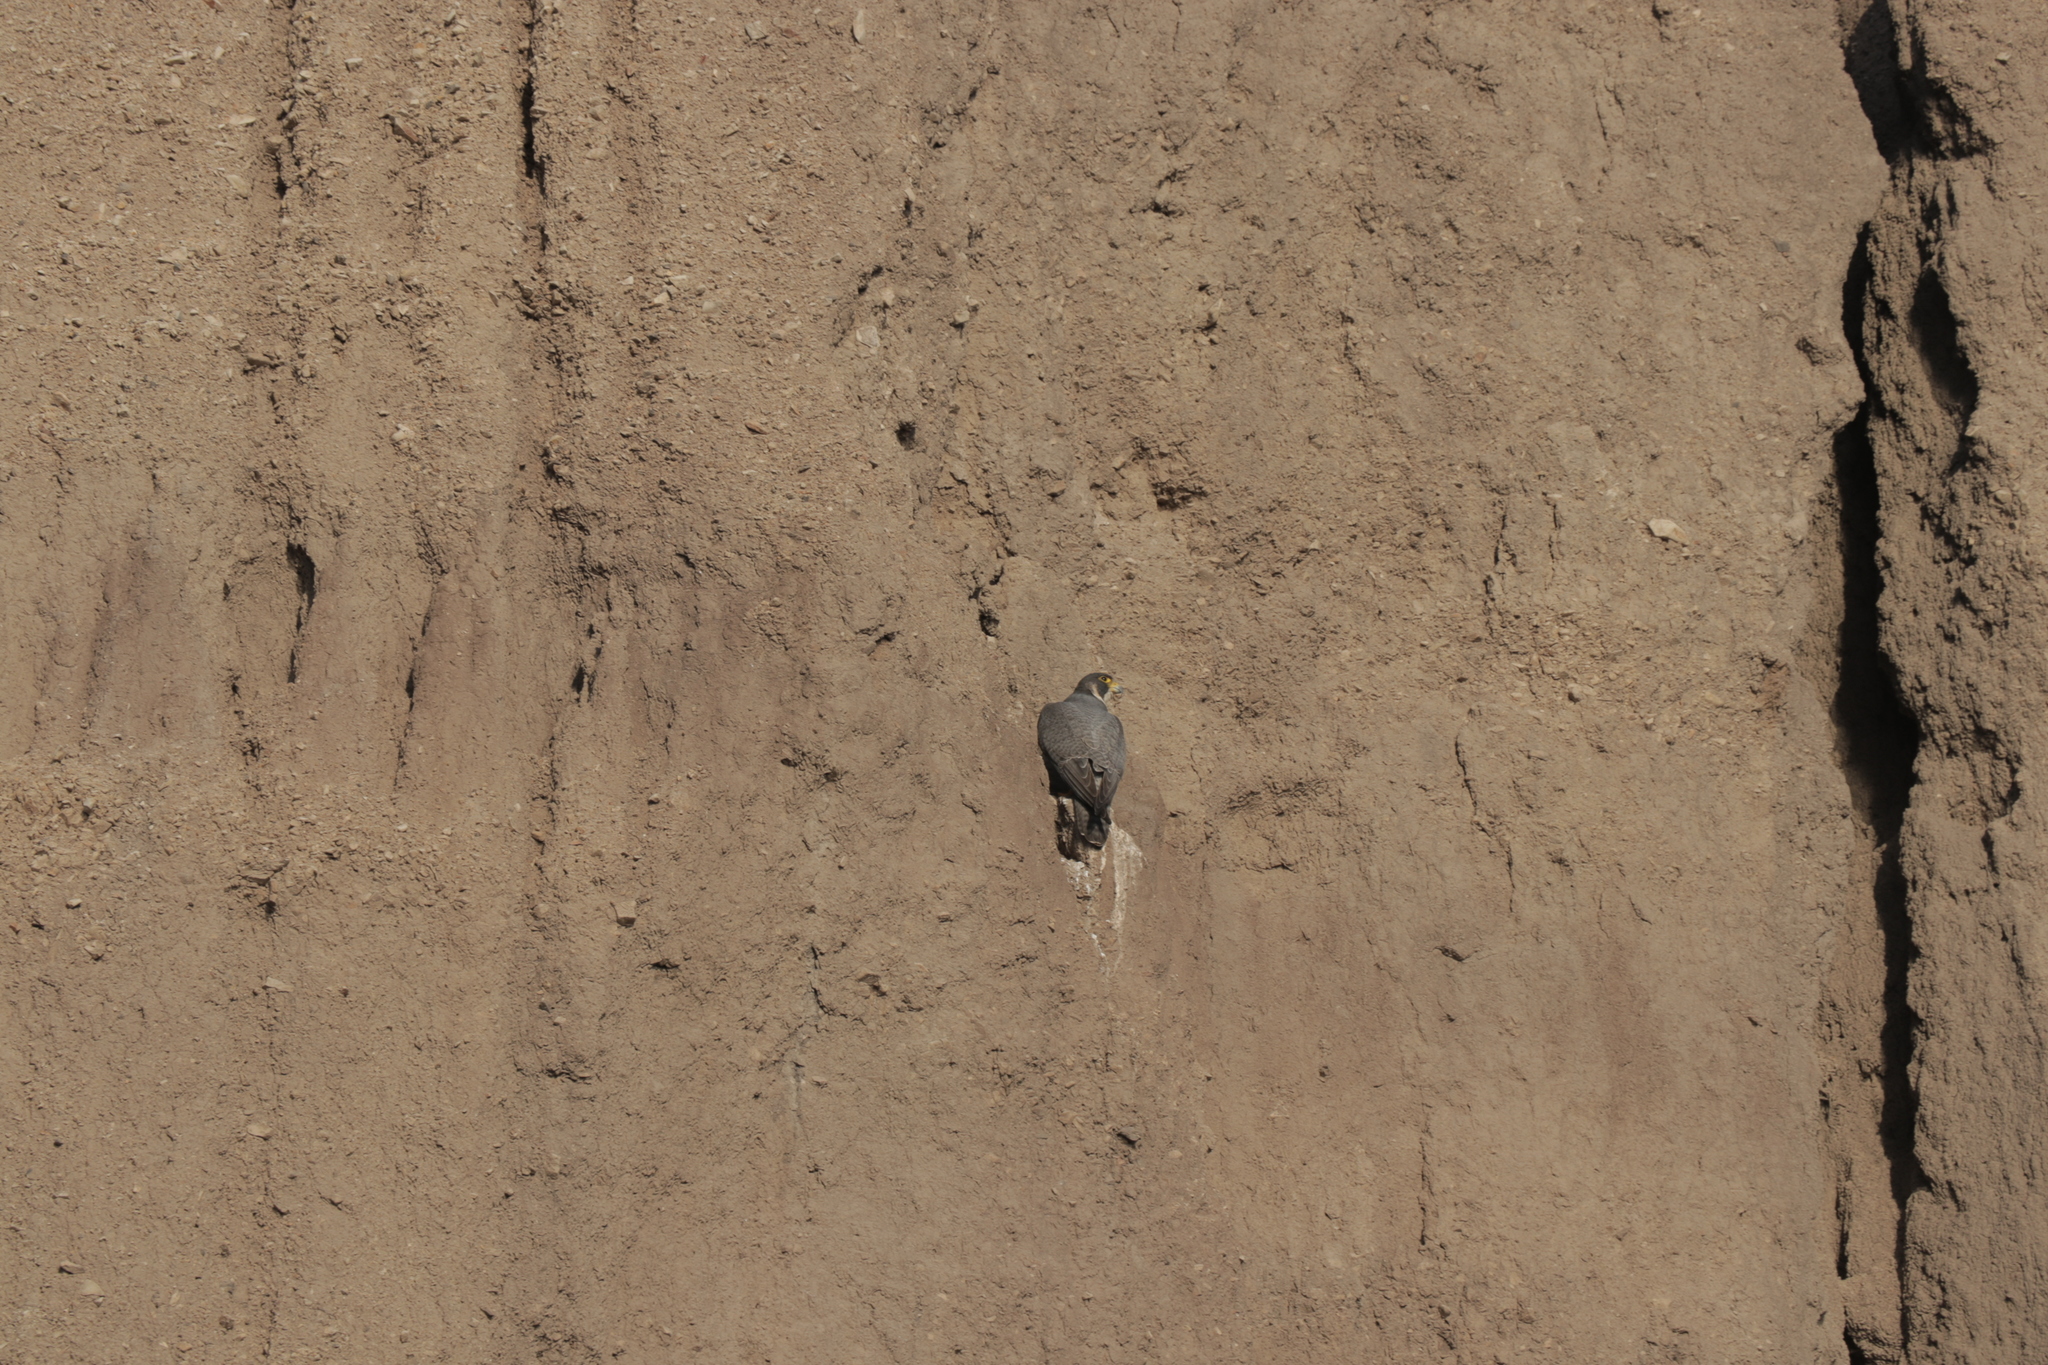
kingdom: Animalia
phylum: Chordata
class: Aves
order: Falconiformes
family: Falconidae
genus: Falco
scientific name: Falco peregrinus
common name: Peregrine falcon
